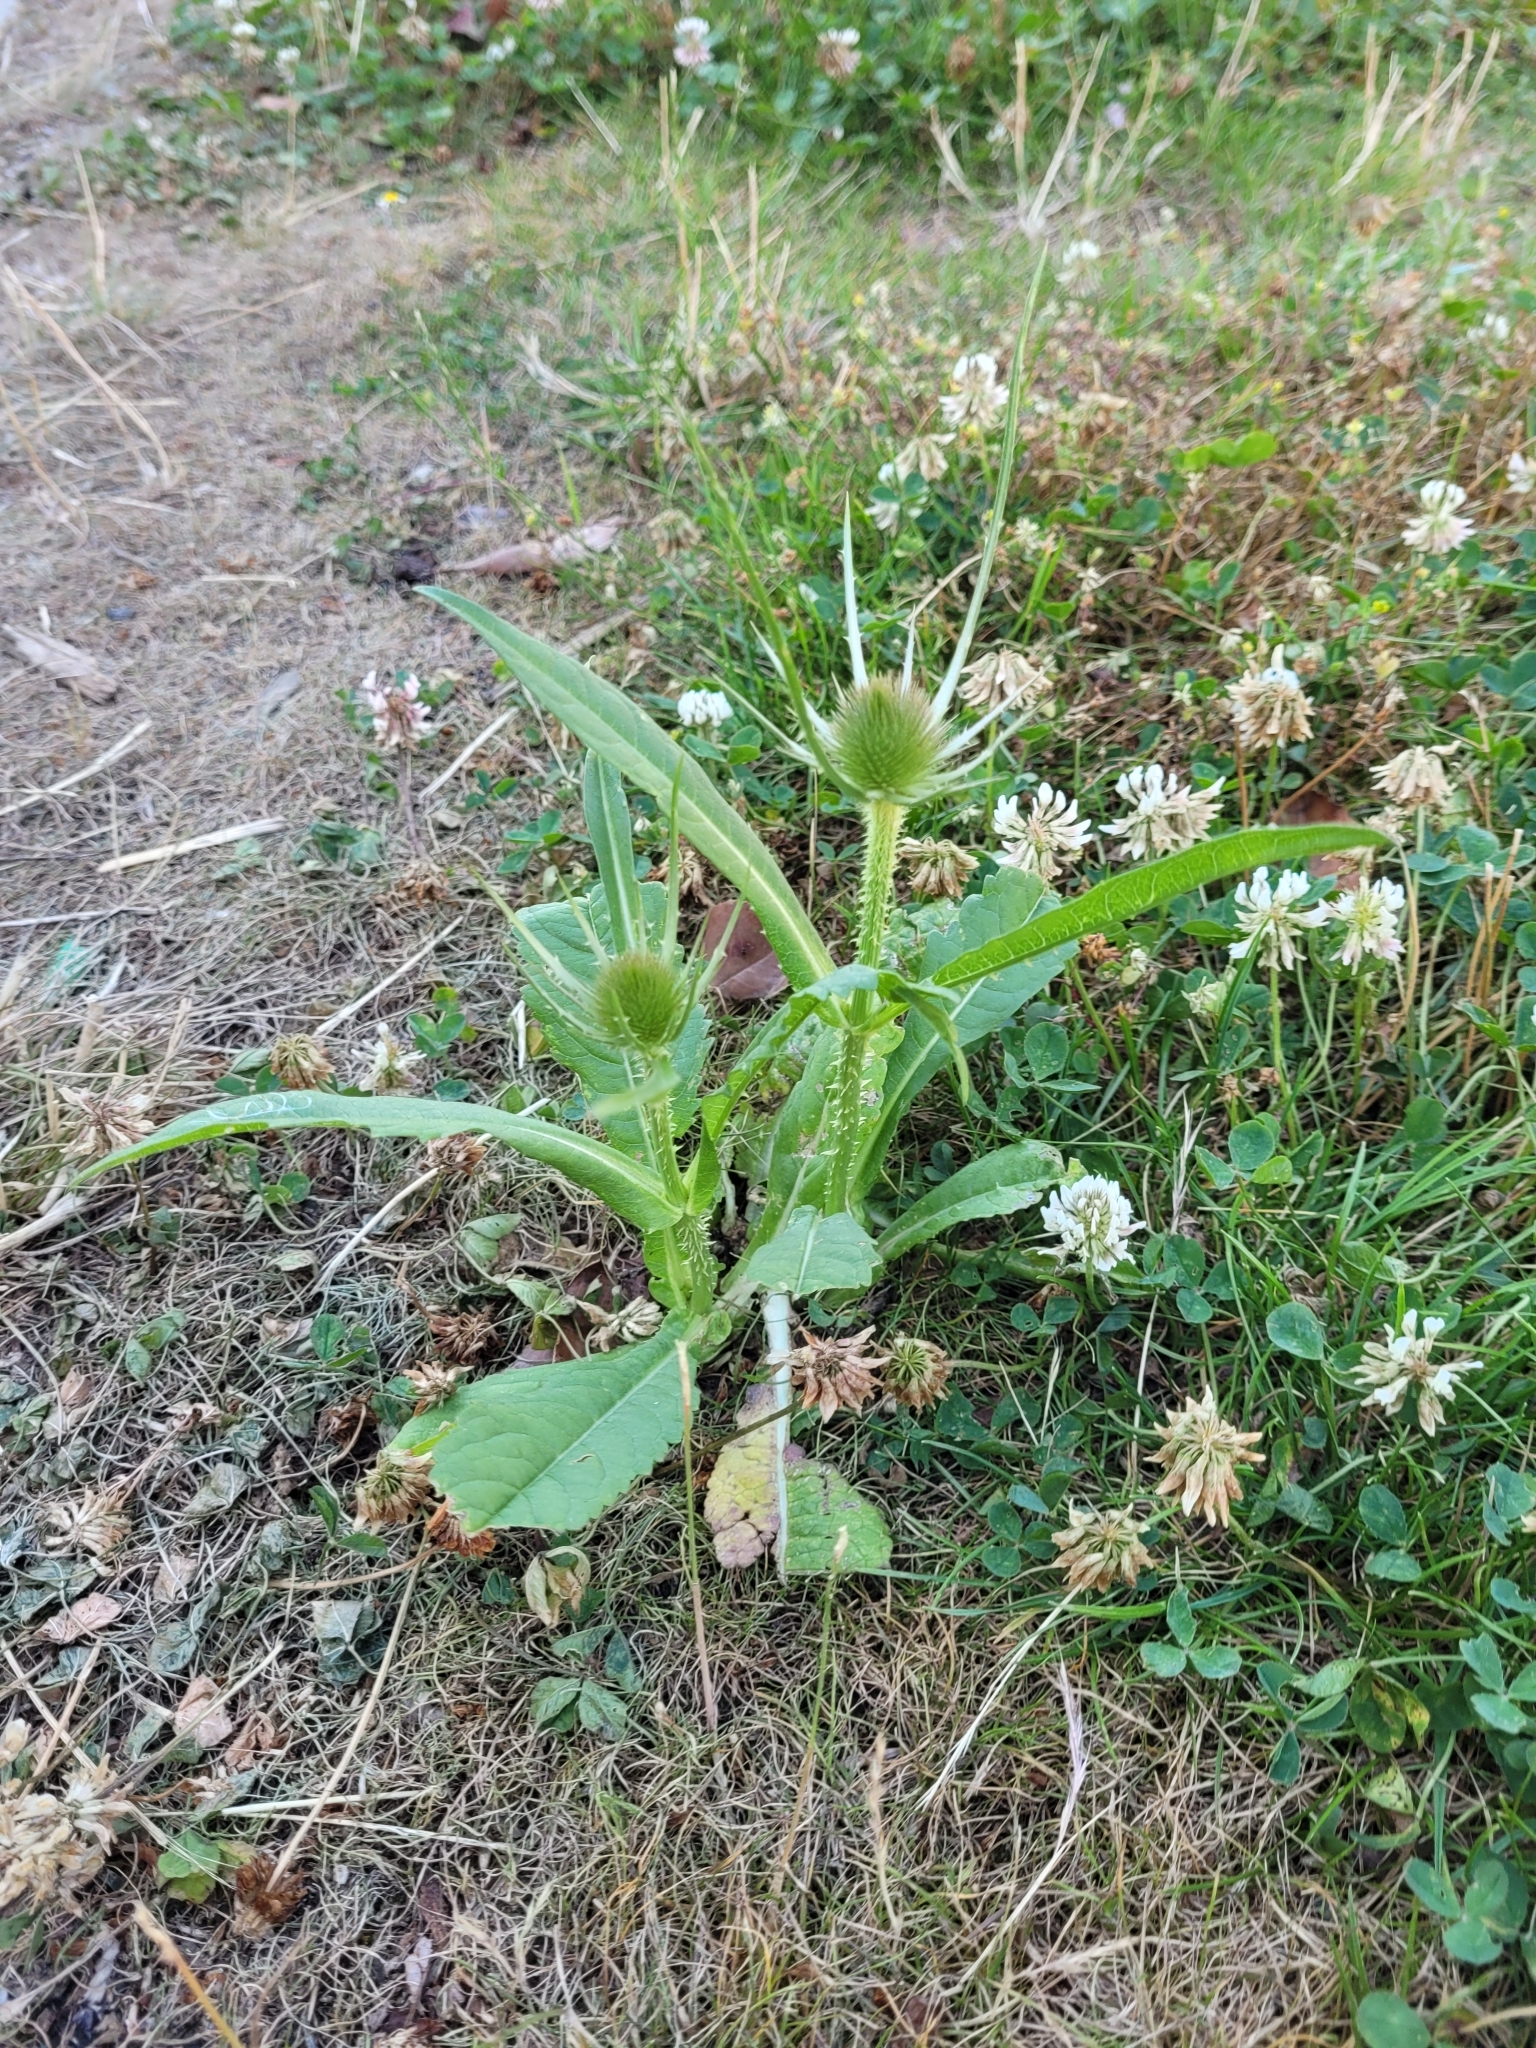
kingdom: Plantae
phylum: Tracheophyta
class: Magnoliopsida
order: Dipsacales
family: Caprifoliaceae
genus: Dipsacus
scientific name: Dipsacus fullonum
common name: Teasel
